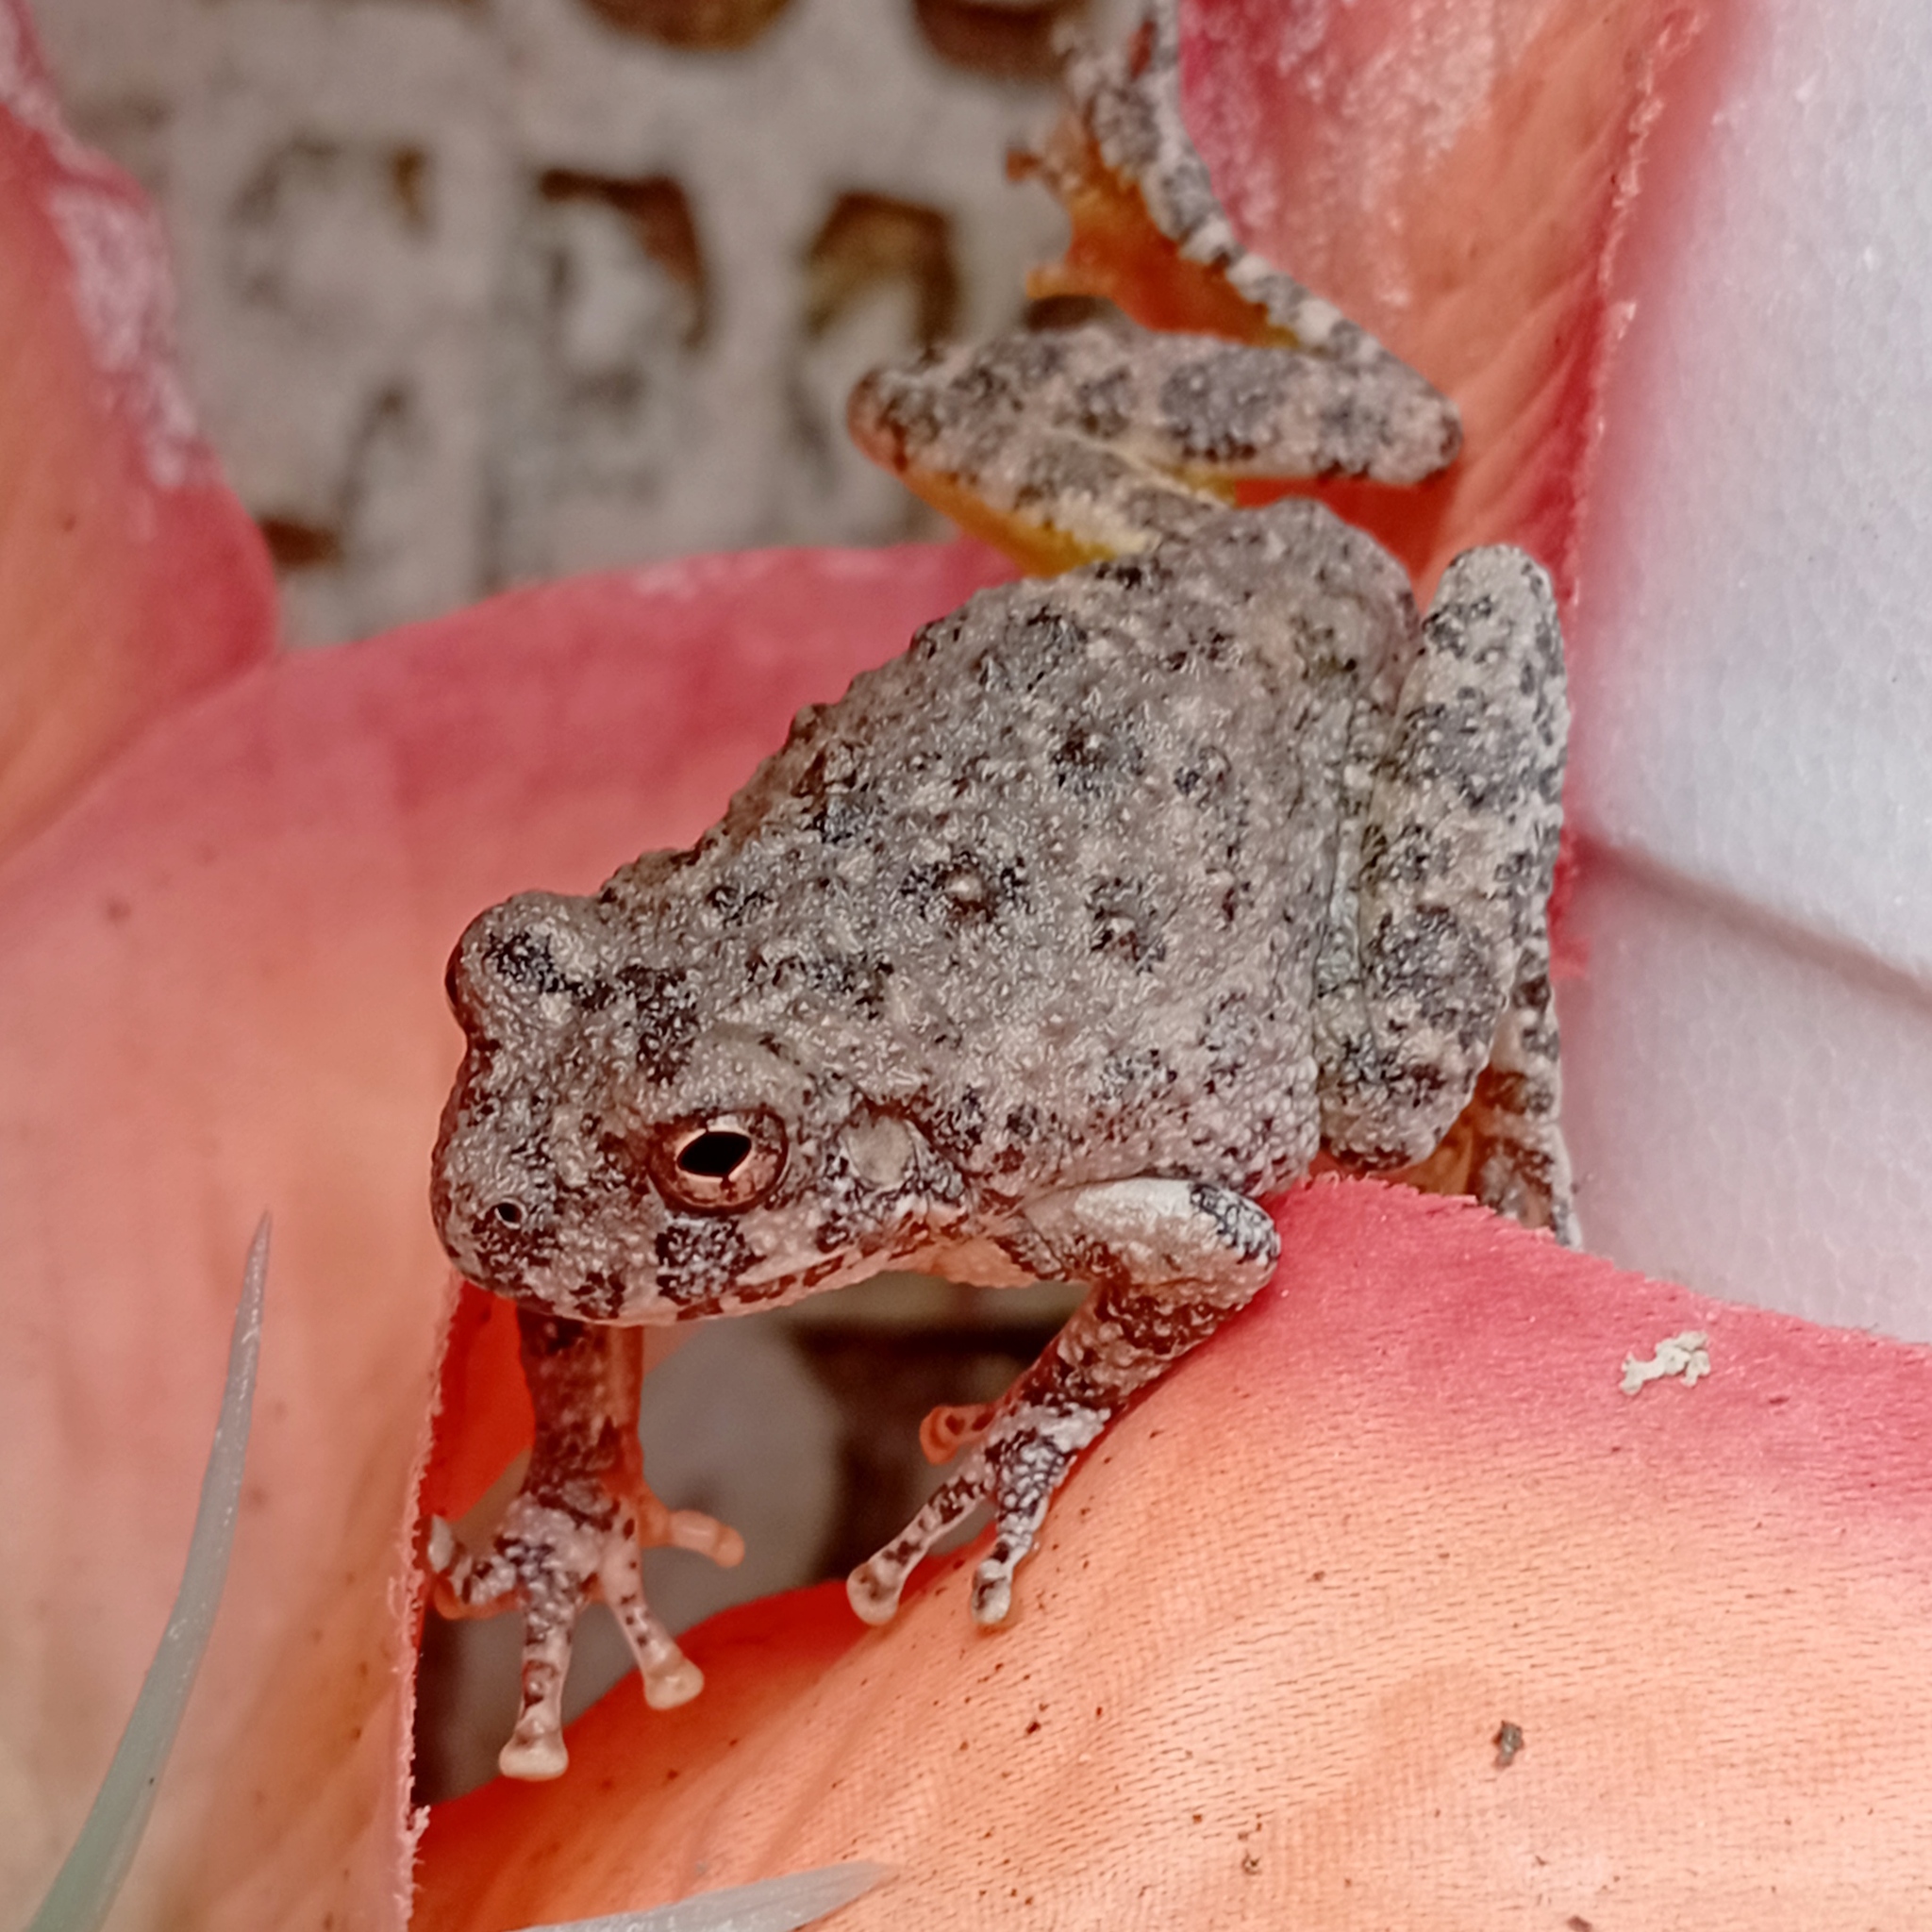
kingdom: Animalia
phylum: Chordata
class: Amphibia
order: Anura
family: Hylidae
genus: Dryophytes
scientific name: Dryophytes arenicolor
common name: Canyon treefrog
